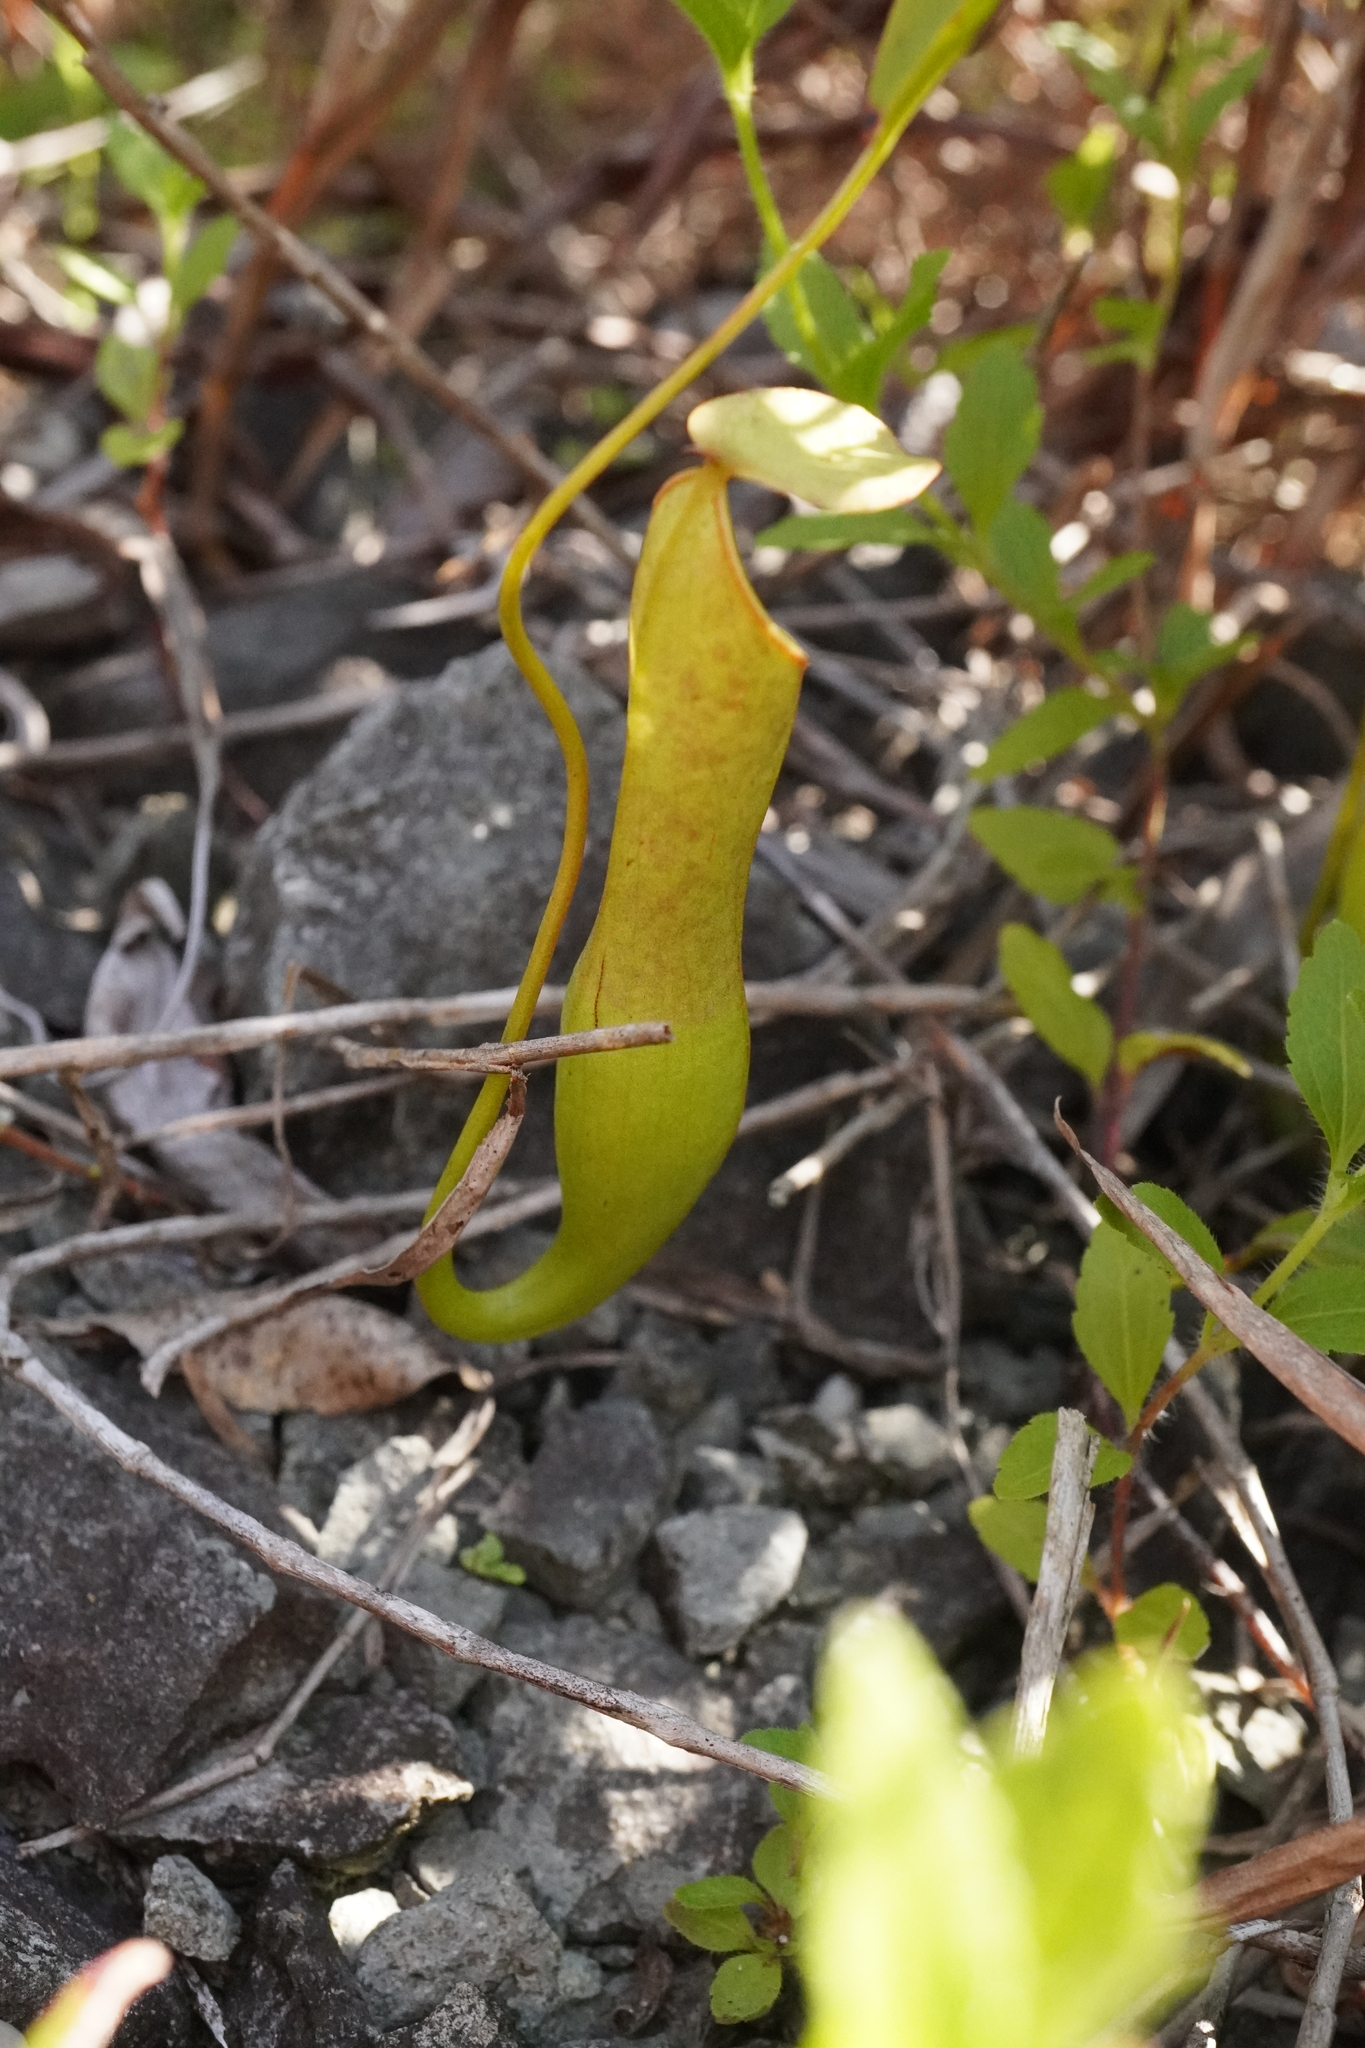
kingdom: Plantae
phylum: Tracheophyta
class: Magnoliopsida
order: Caryophyllales
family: Nepenthaceae
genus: Nepenthes
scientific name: Nepenthes gracilis
